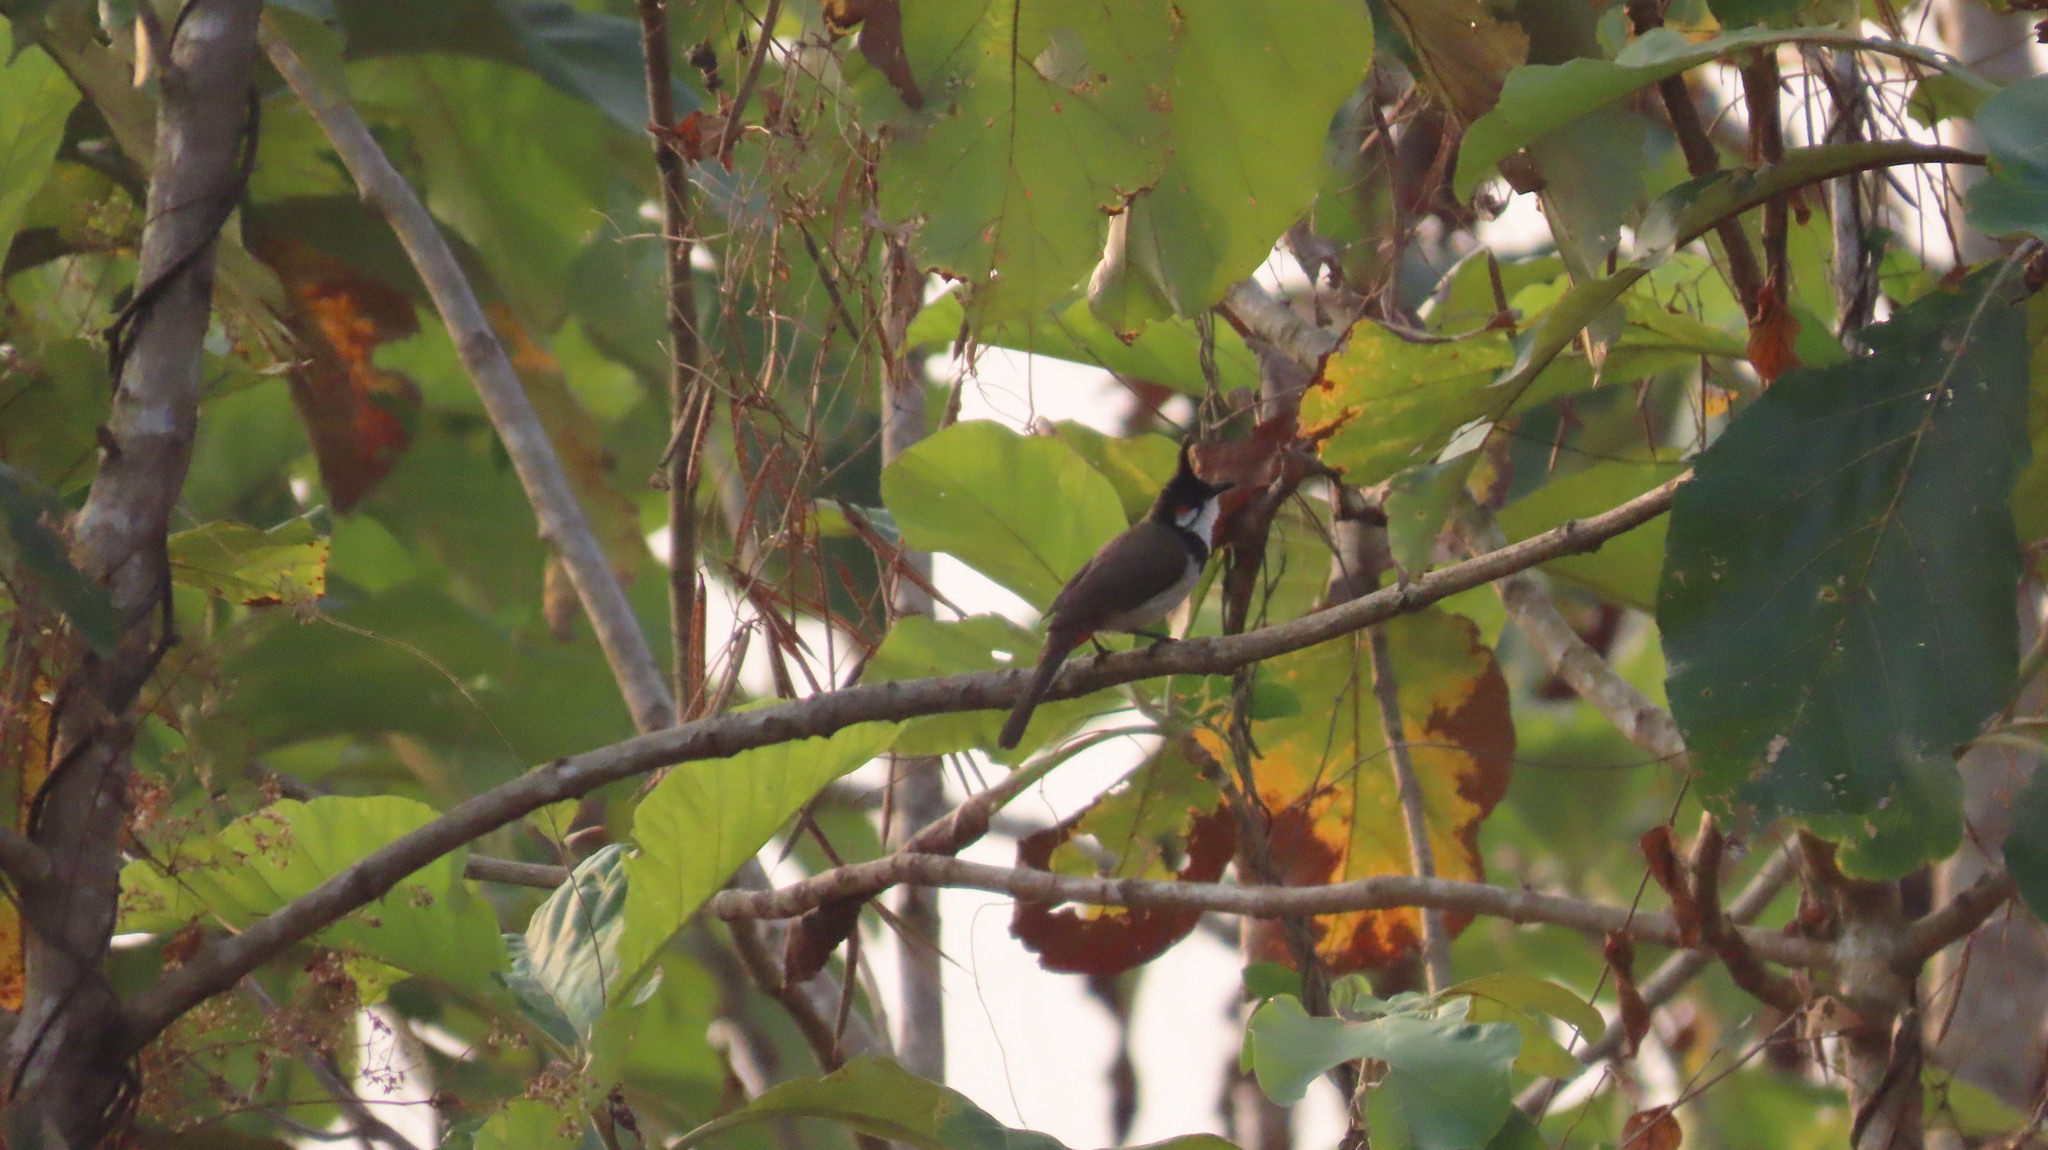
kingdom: Animalia
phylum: Chordata
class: Aves
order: Passeriformes
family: Pycnonotidae
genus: Pycnonotus
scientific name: Pycnonotus jocosus
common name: Red-whiskered bulbul
